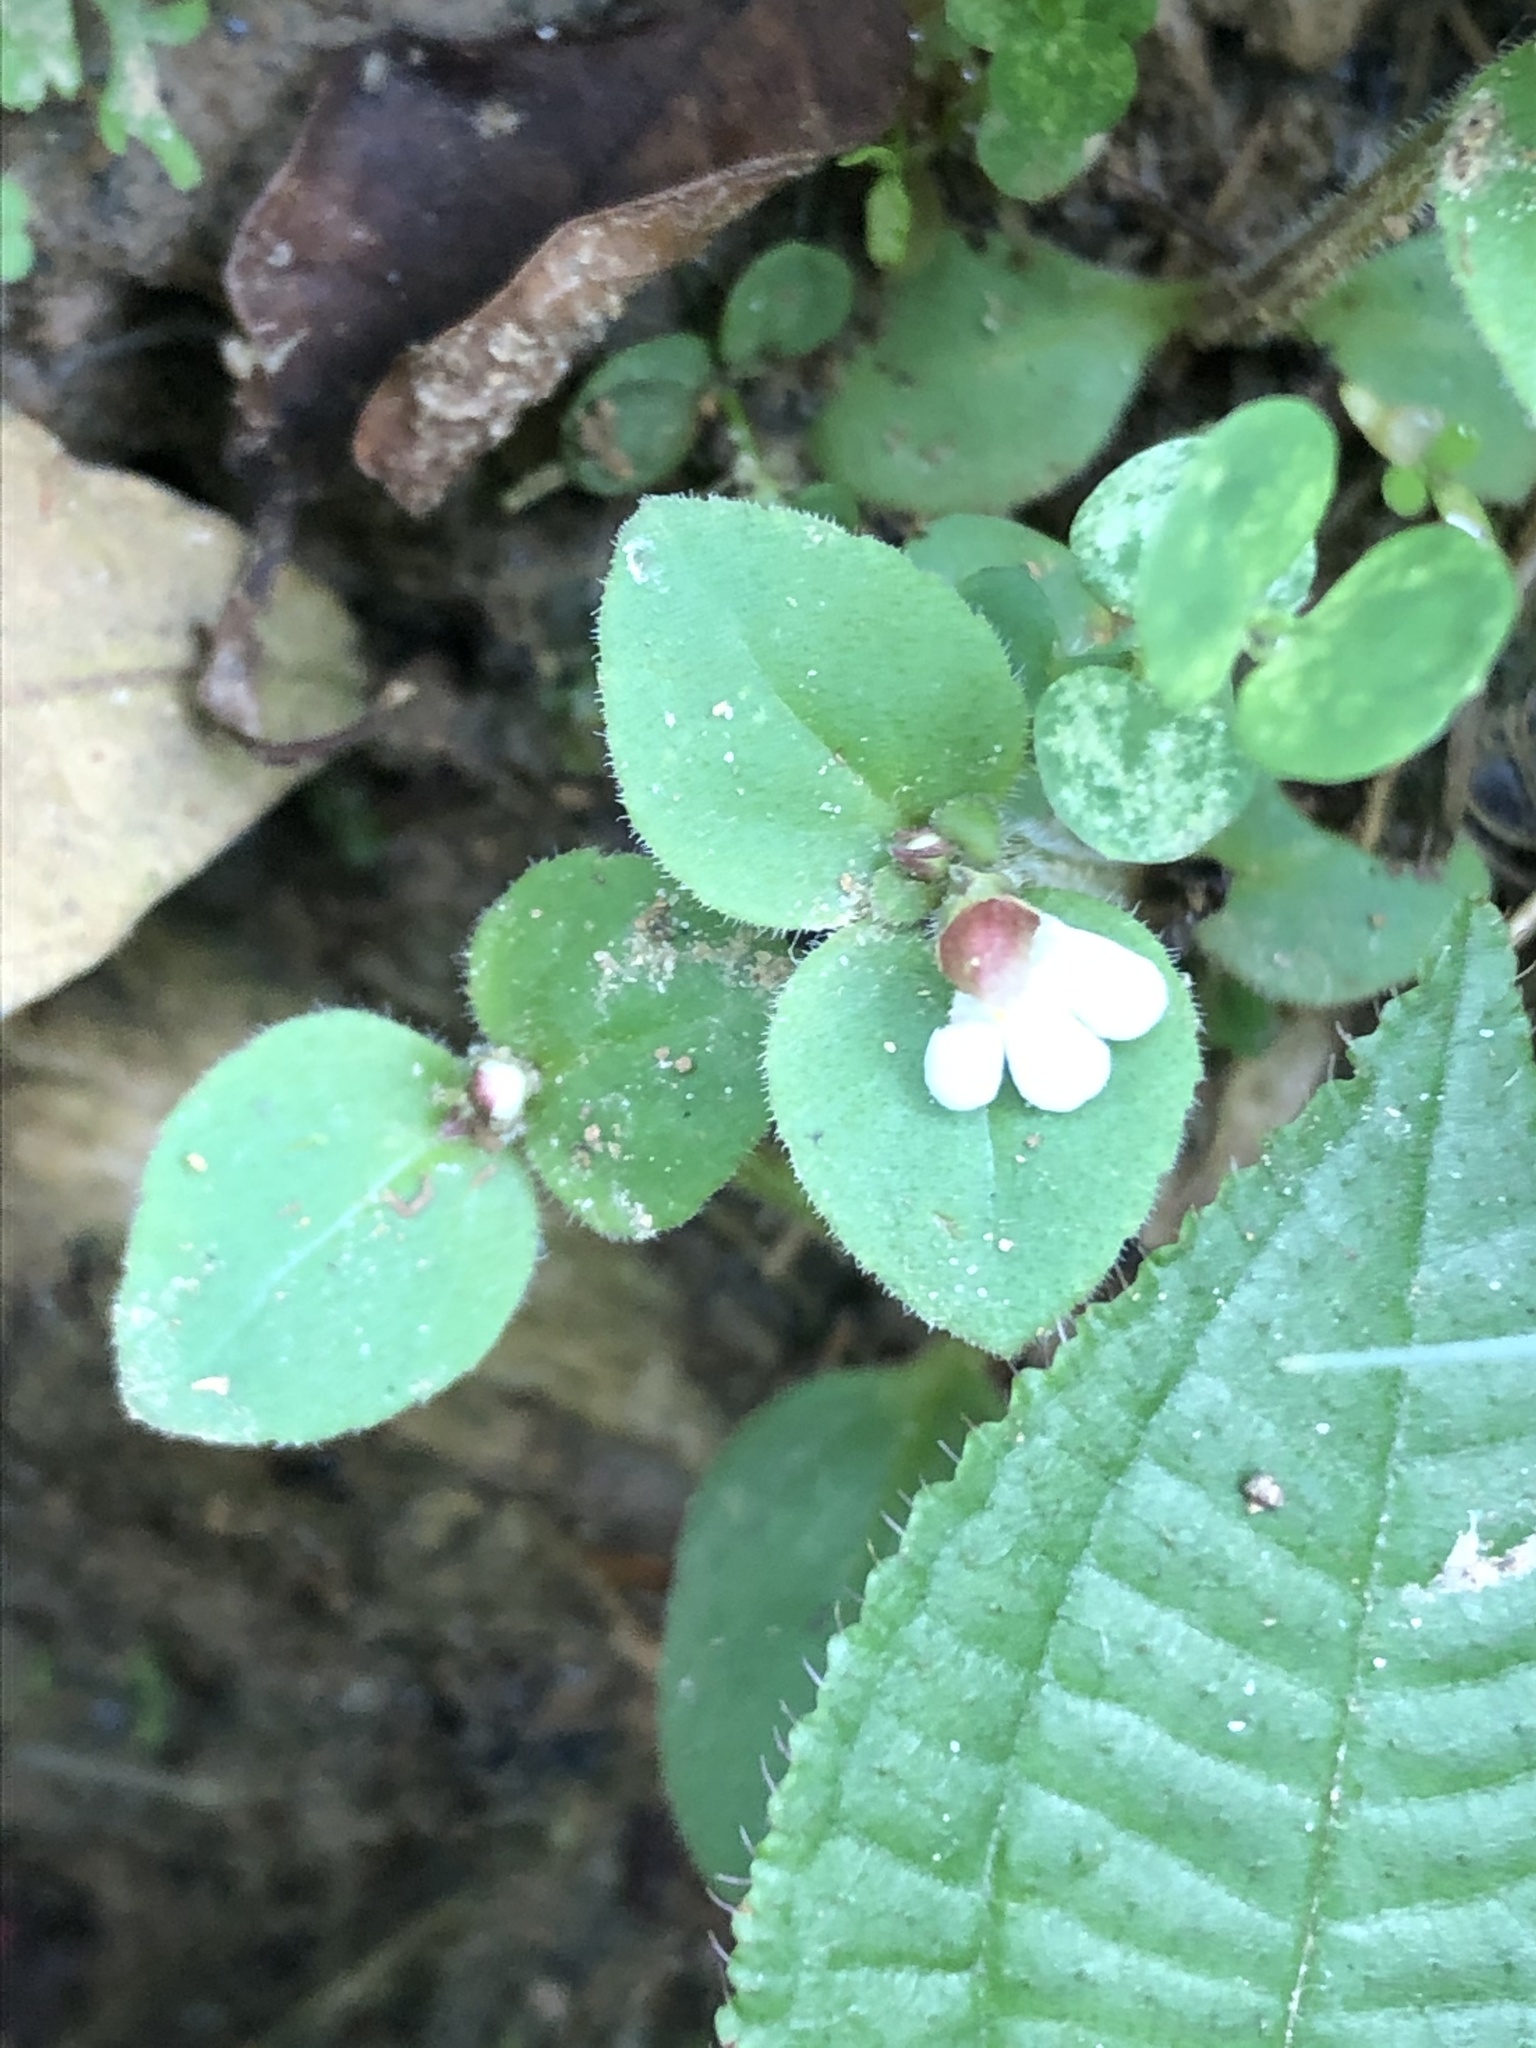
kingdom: Plantae
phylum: Tracheophyta
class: Magnoliopsida
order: Lamiales
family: Linderniaceae
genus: Vandellia
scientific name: Vandellia diffusa
